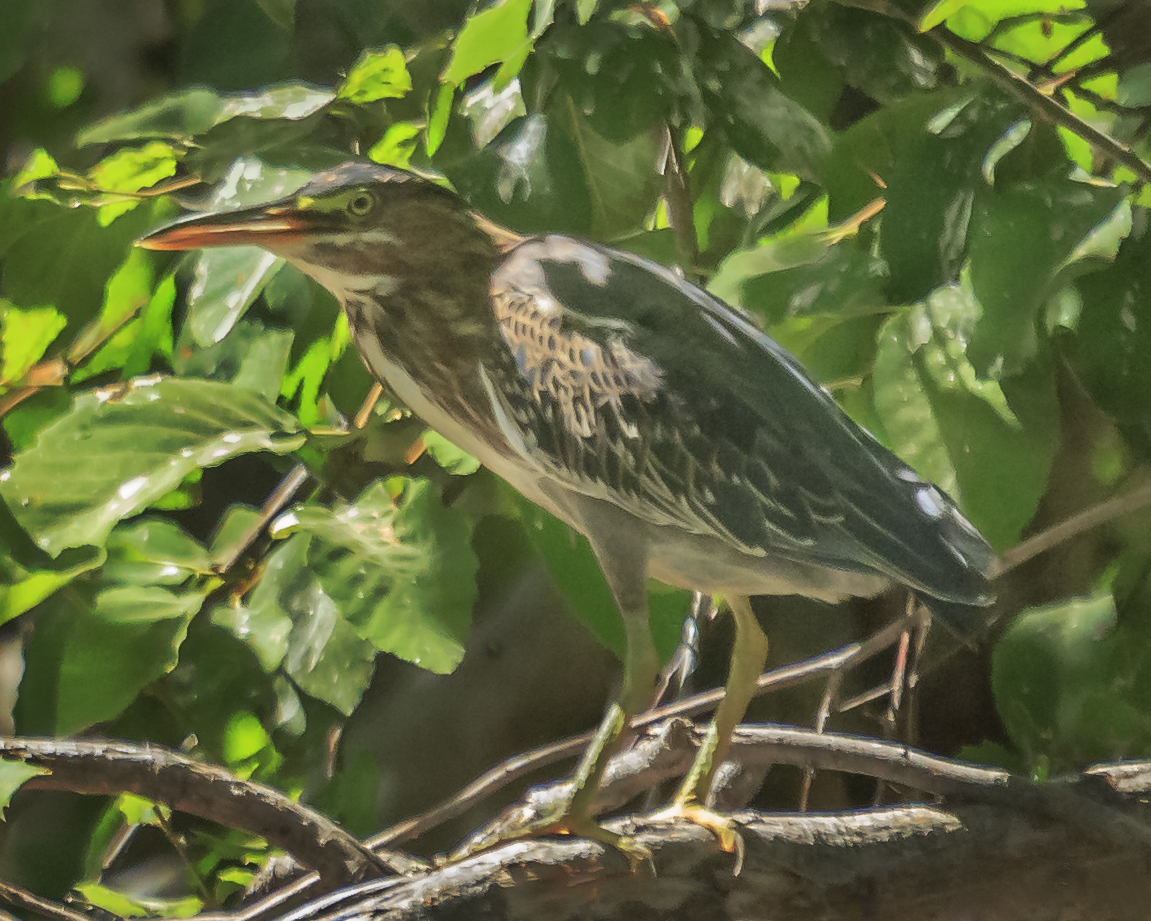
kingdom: Animalia
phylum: Chordata
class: Aves
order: Pelecaniformes
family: Ardeidae
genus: Butorides
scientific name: Butorides virescens
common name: Green heron
